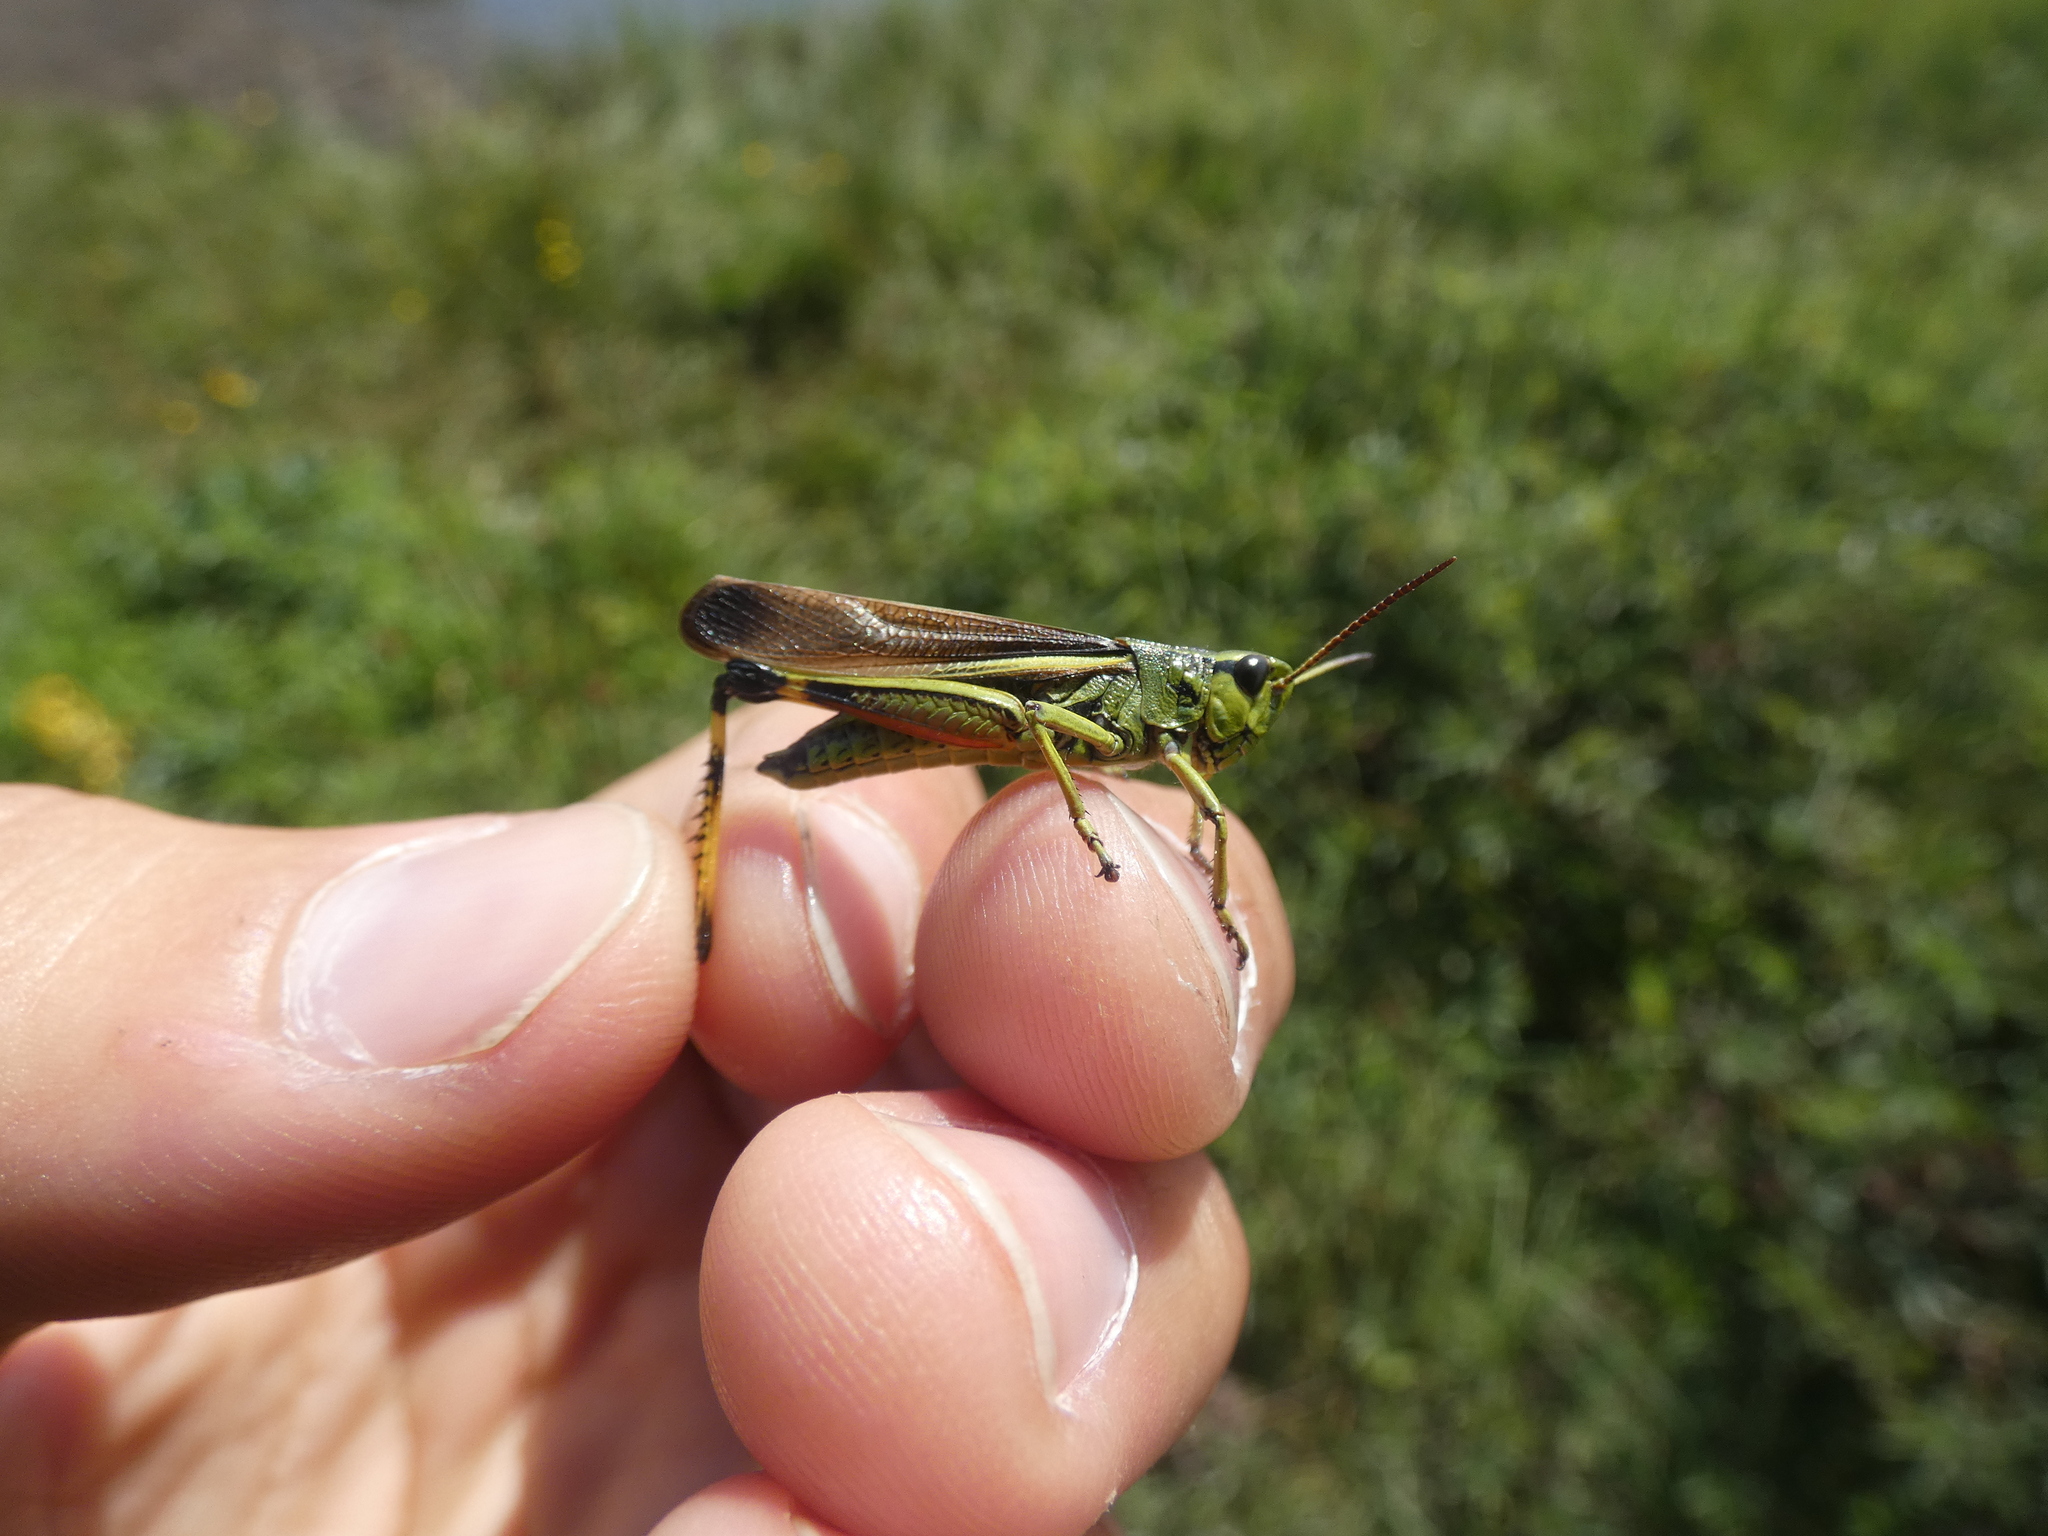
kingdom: Animalia
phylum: Arthropoda
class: Insecta
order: Orthoptera
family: Acrididae
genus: Stethophyma
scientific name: Stethophyma grossum
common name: Large marsh grasshopper
